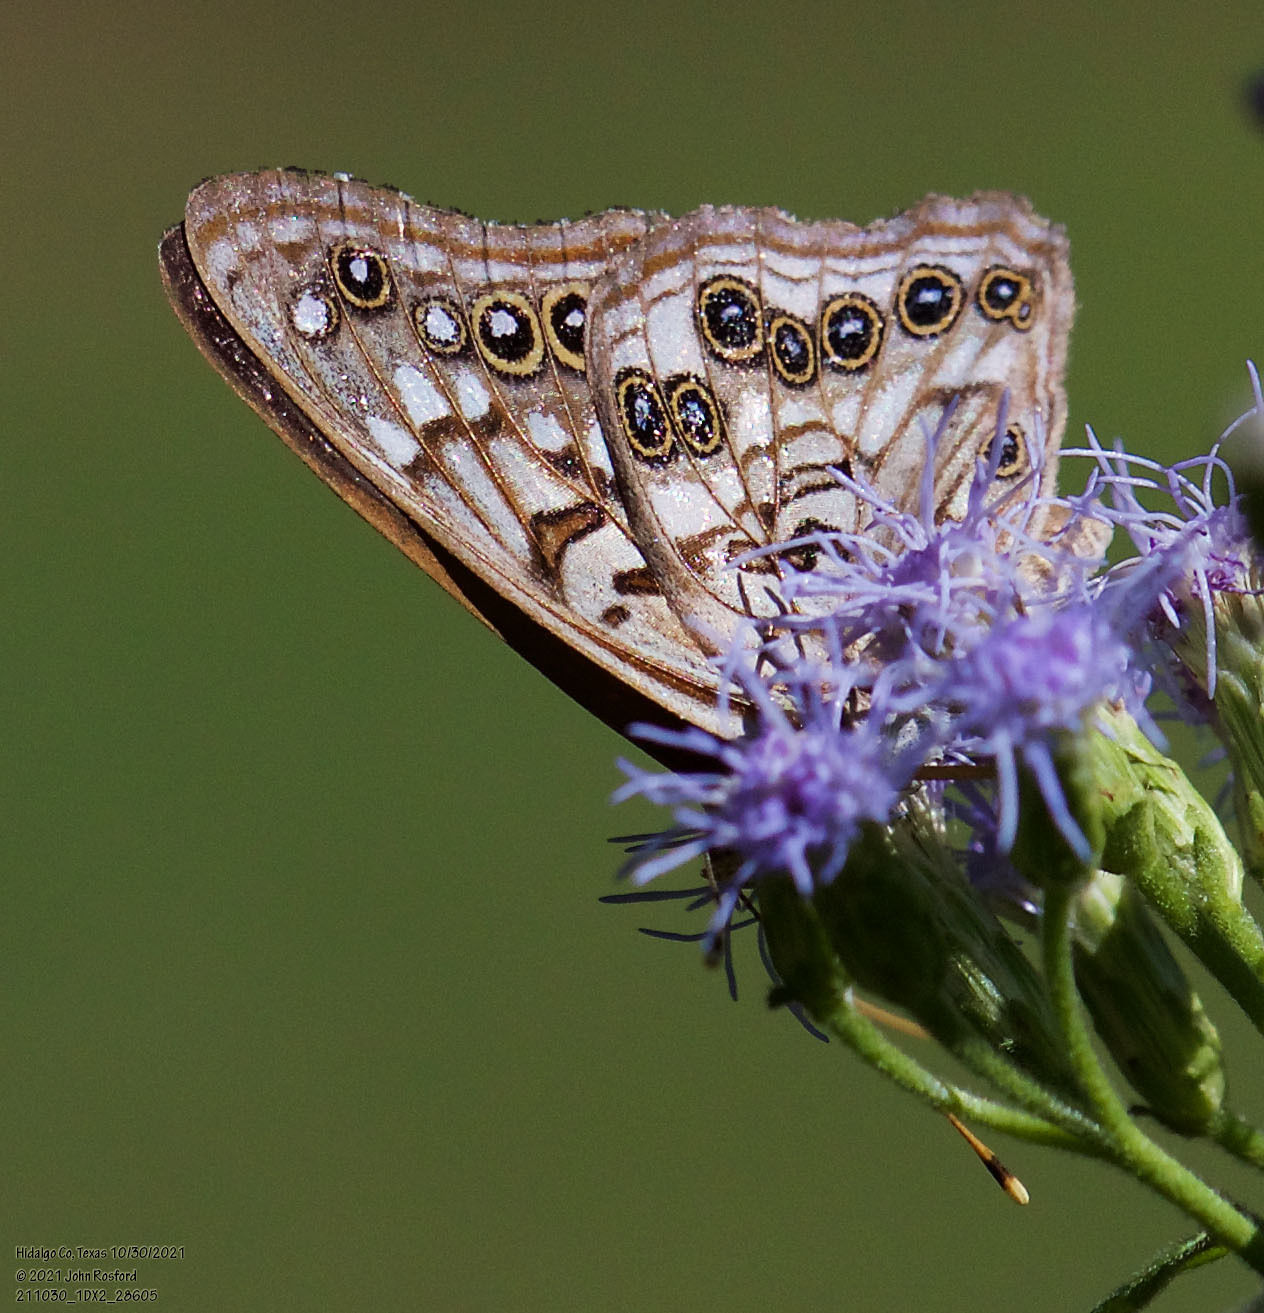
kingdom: Animalia
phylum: Arthropoda
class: Insecta
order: Lepidoptera
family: Nymphalidae
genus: Asterocampa
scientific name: Asterocampa leilia
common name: Empress leilia
